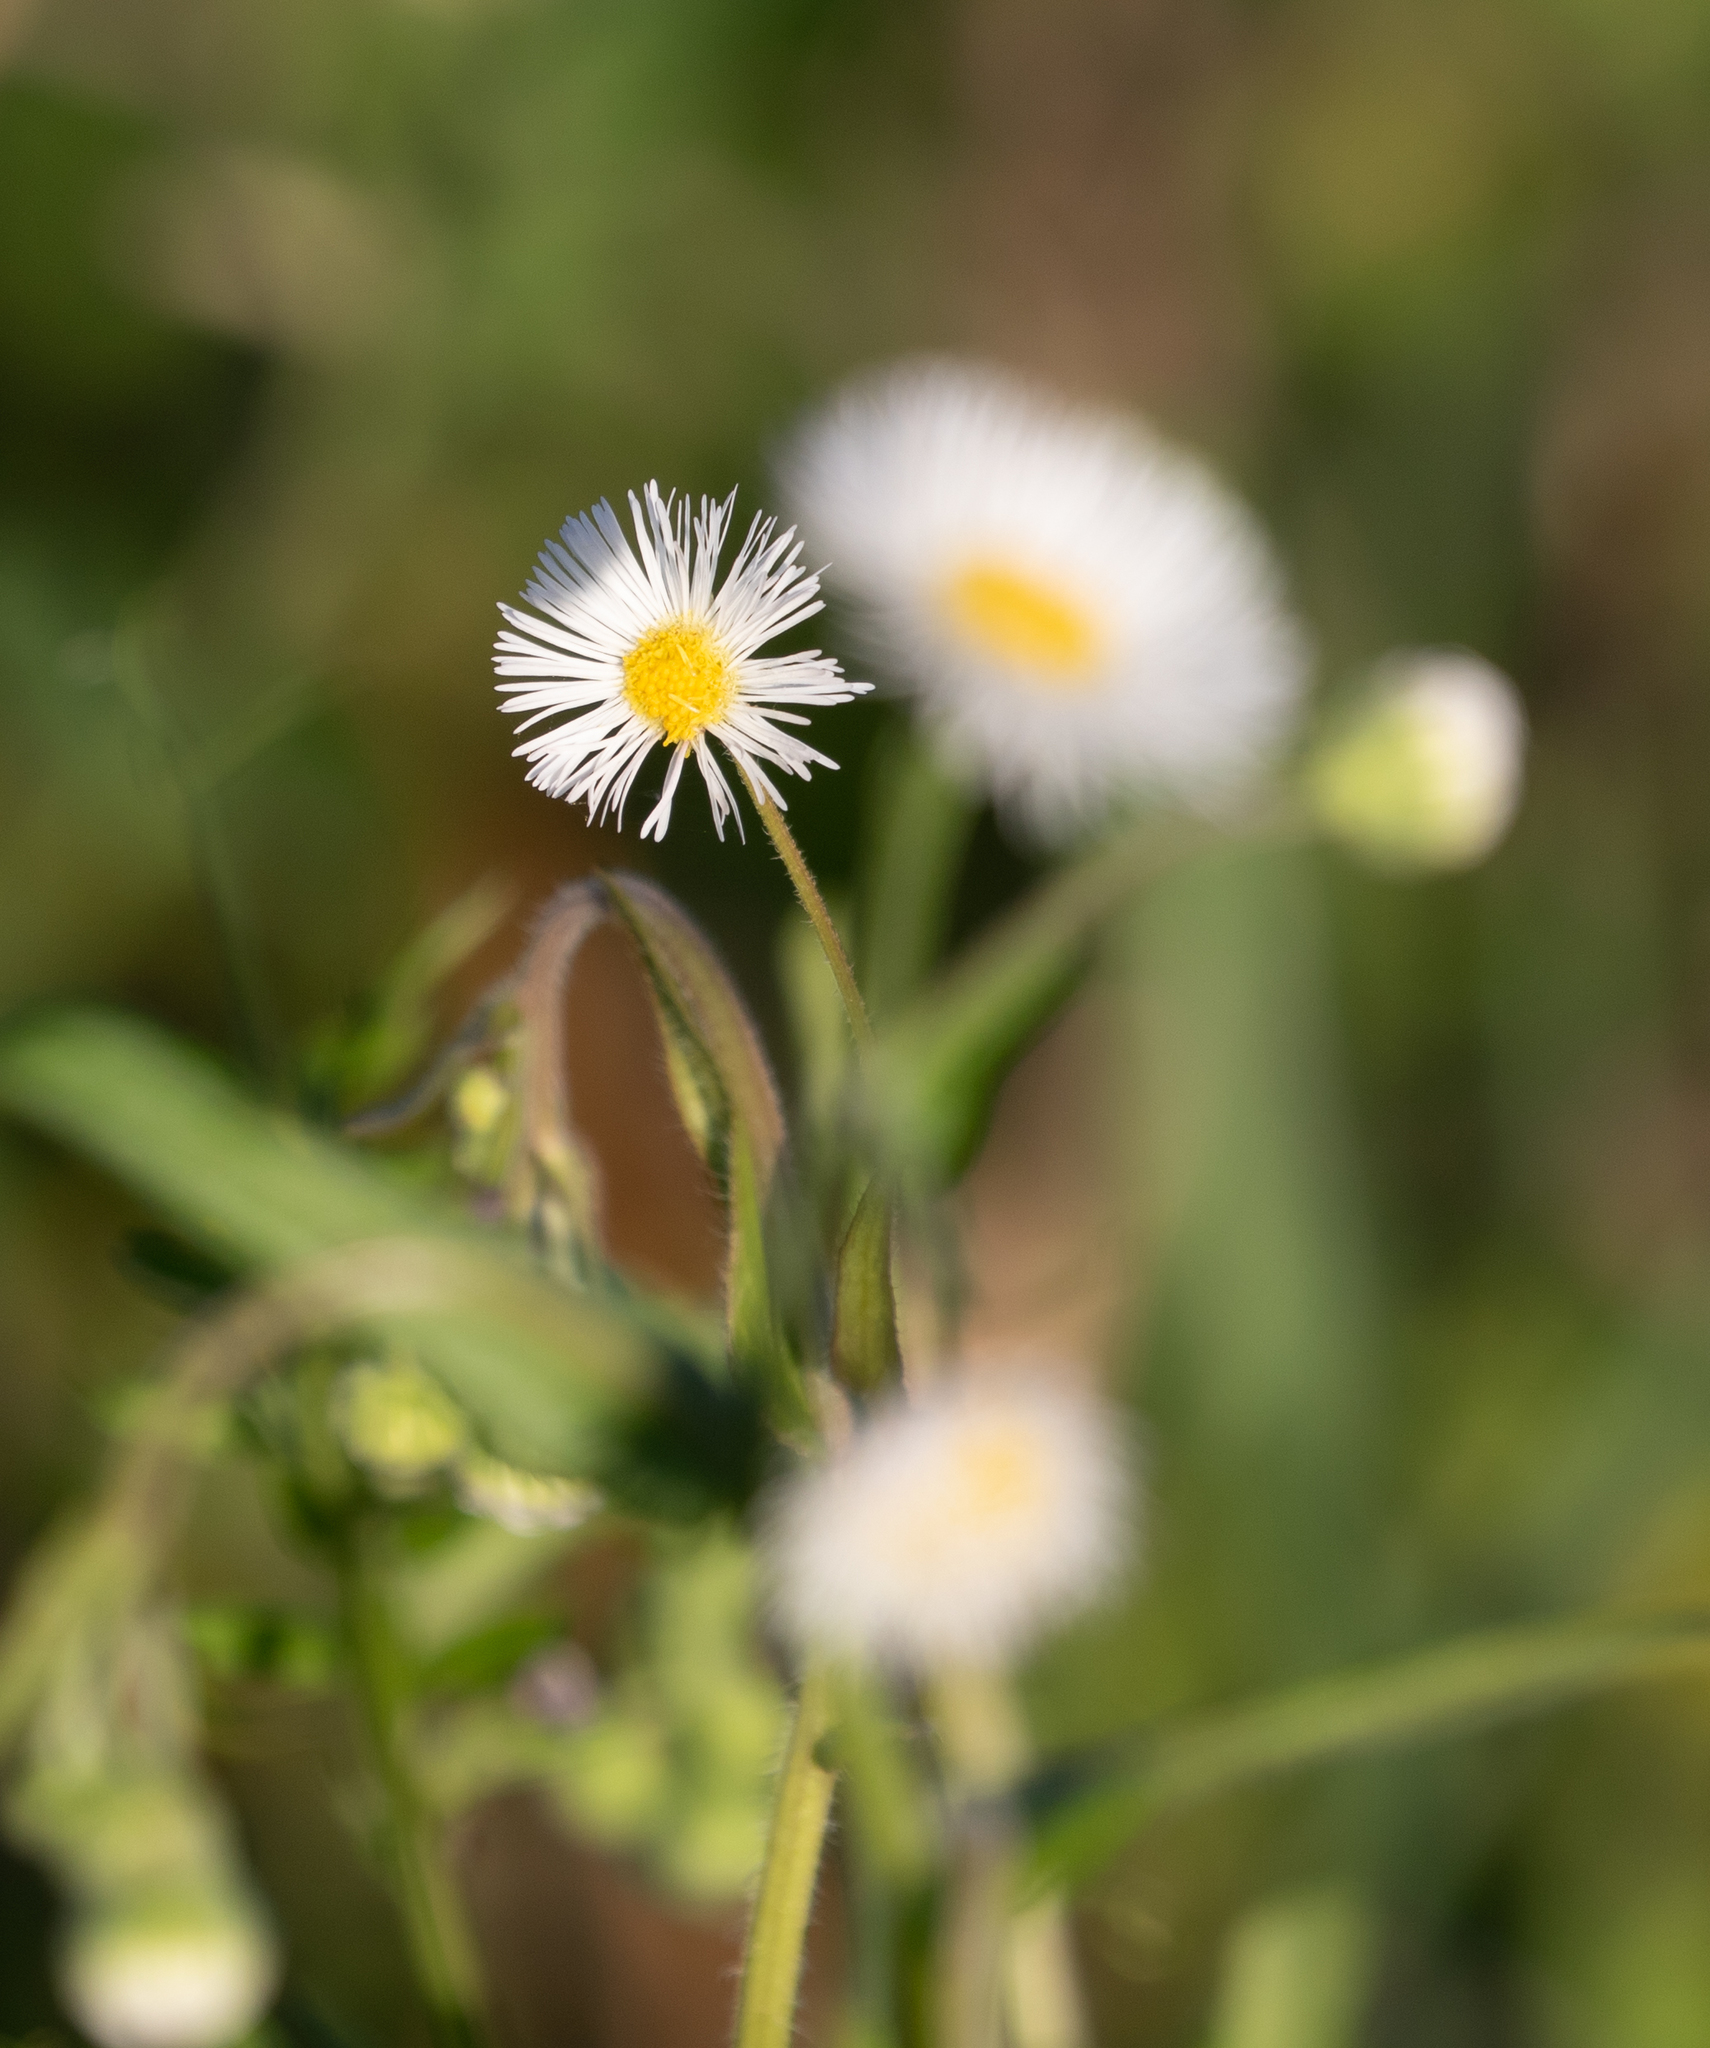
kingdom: Plantae
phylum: Tracheophyta
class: Magnoliopsida
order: Asterales
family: Asteraceae
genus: Erigeron
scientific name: Erigeron philadelphicus
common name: Robin's-plantain
